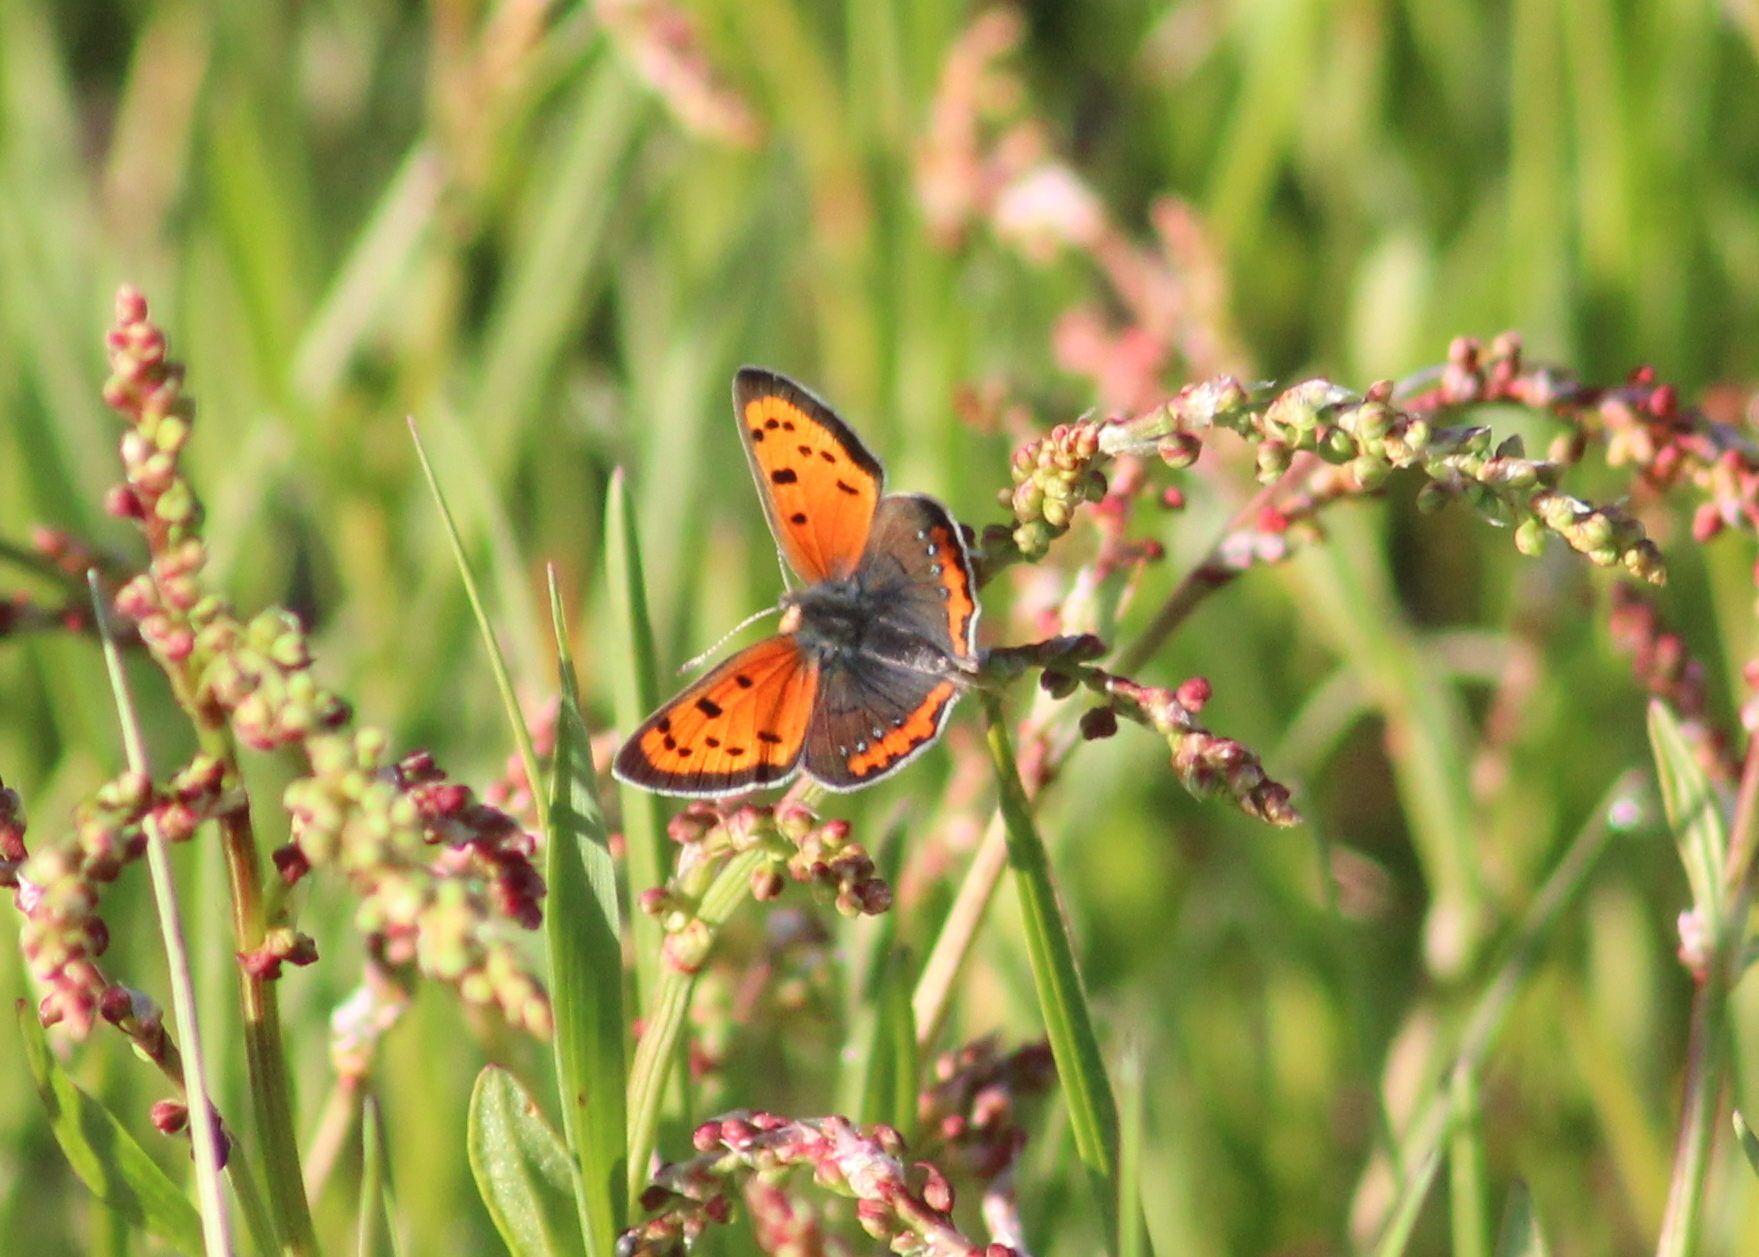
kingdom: Animalia
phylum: Arthropoda
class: Insecta
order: Lepidoptera
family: Lycaenidae
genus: Lycaena
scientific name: Lycaena hypophlaeas
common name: American copper
